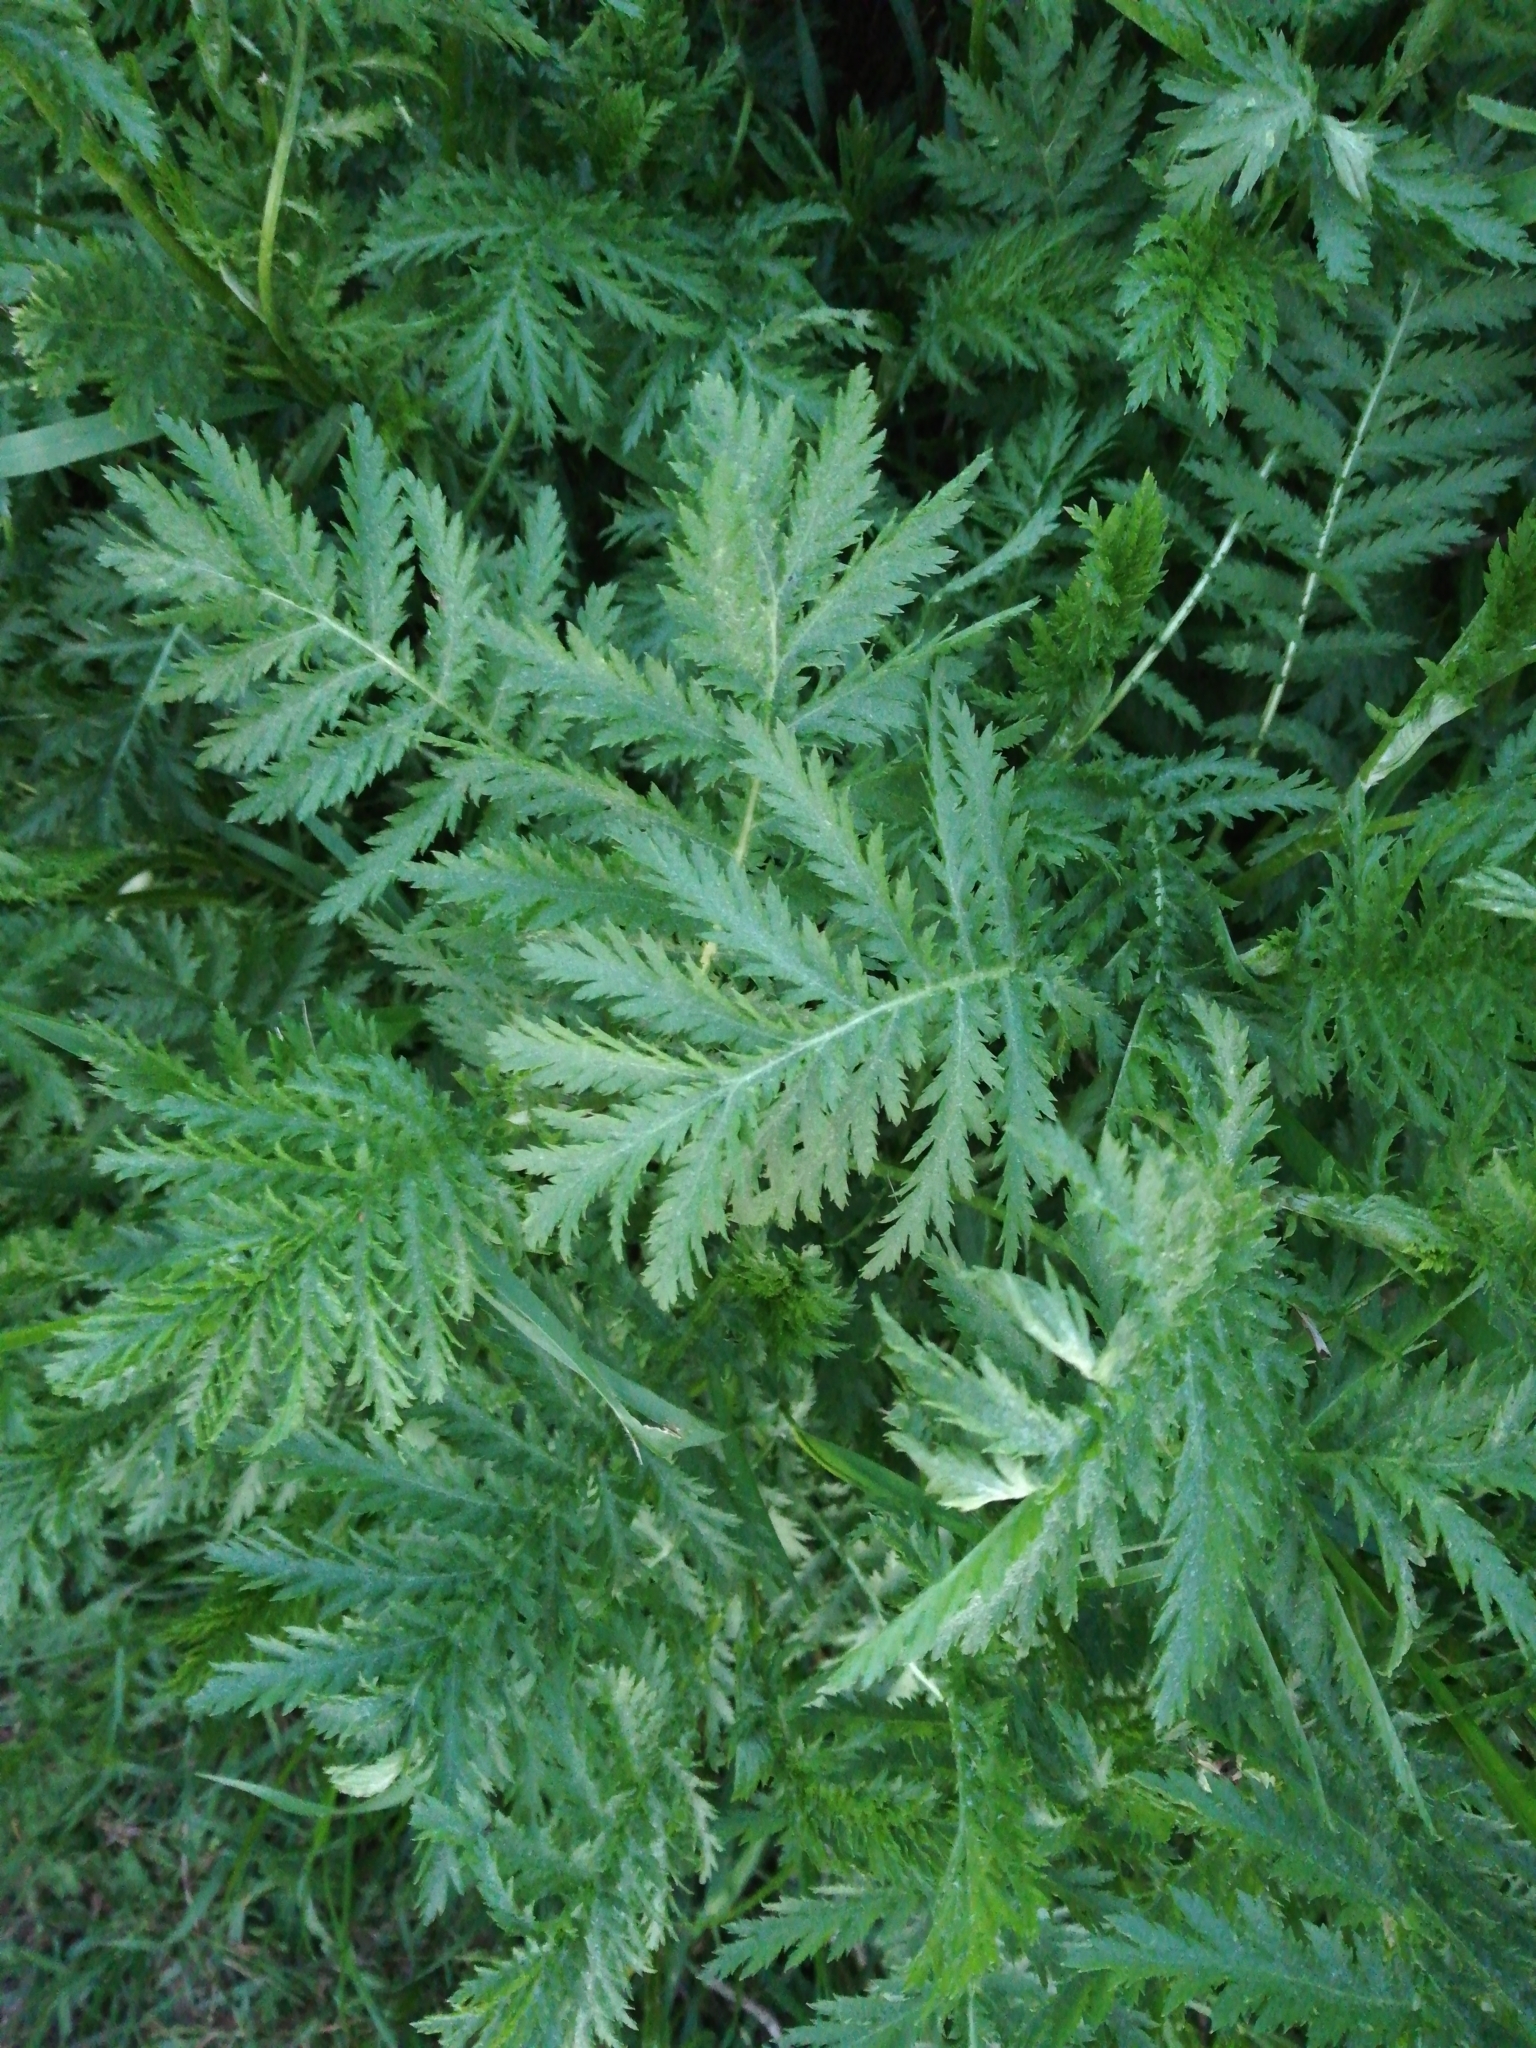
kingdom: Plantae
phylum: Tracheophyta
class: Magnoliopsida
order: Asterales
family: Asteraceae
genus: Tanacetum
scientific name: Tanacetum vulgare
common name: Common tansy
